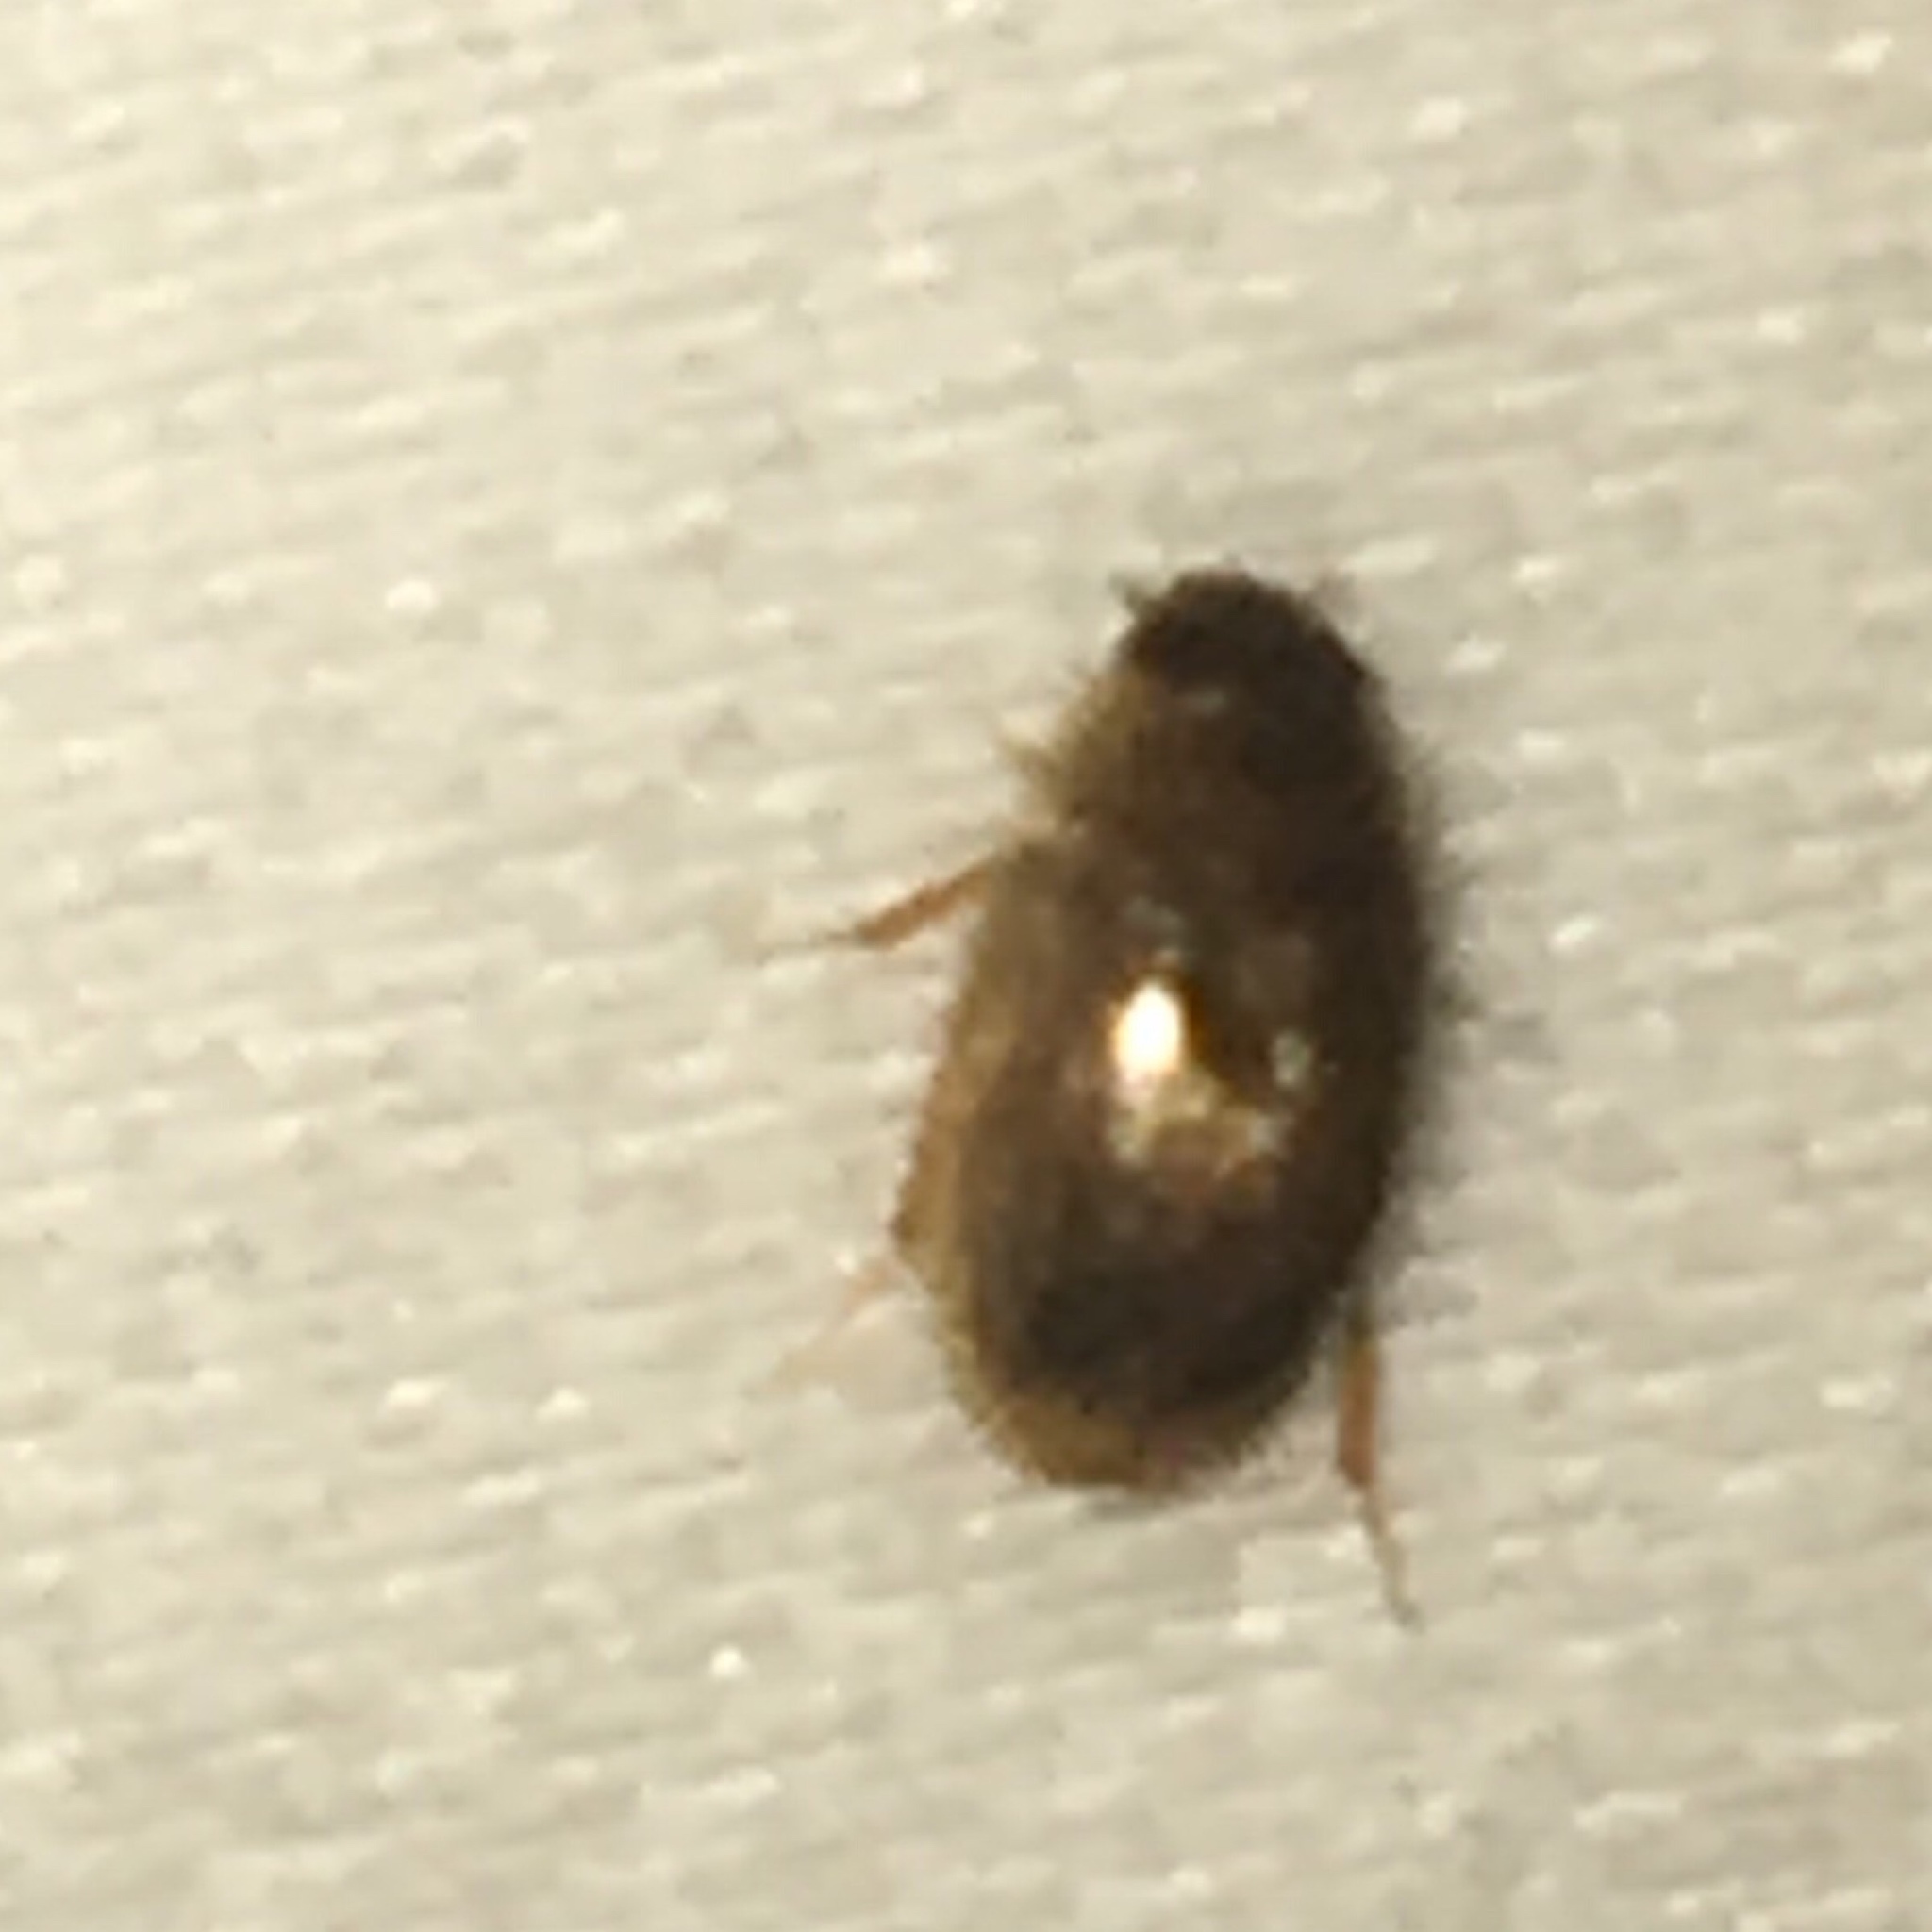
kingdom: Animalia
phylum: Arthropoda
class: Insecta
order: Coleoptera
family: Hydrophilidae
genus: Enochrus
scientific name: Enochrus
